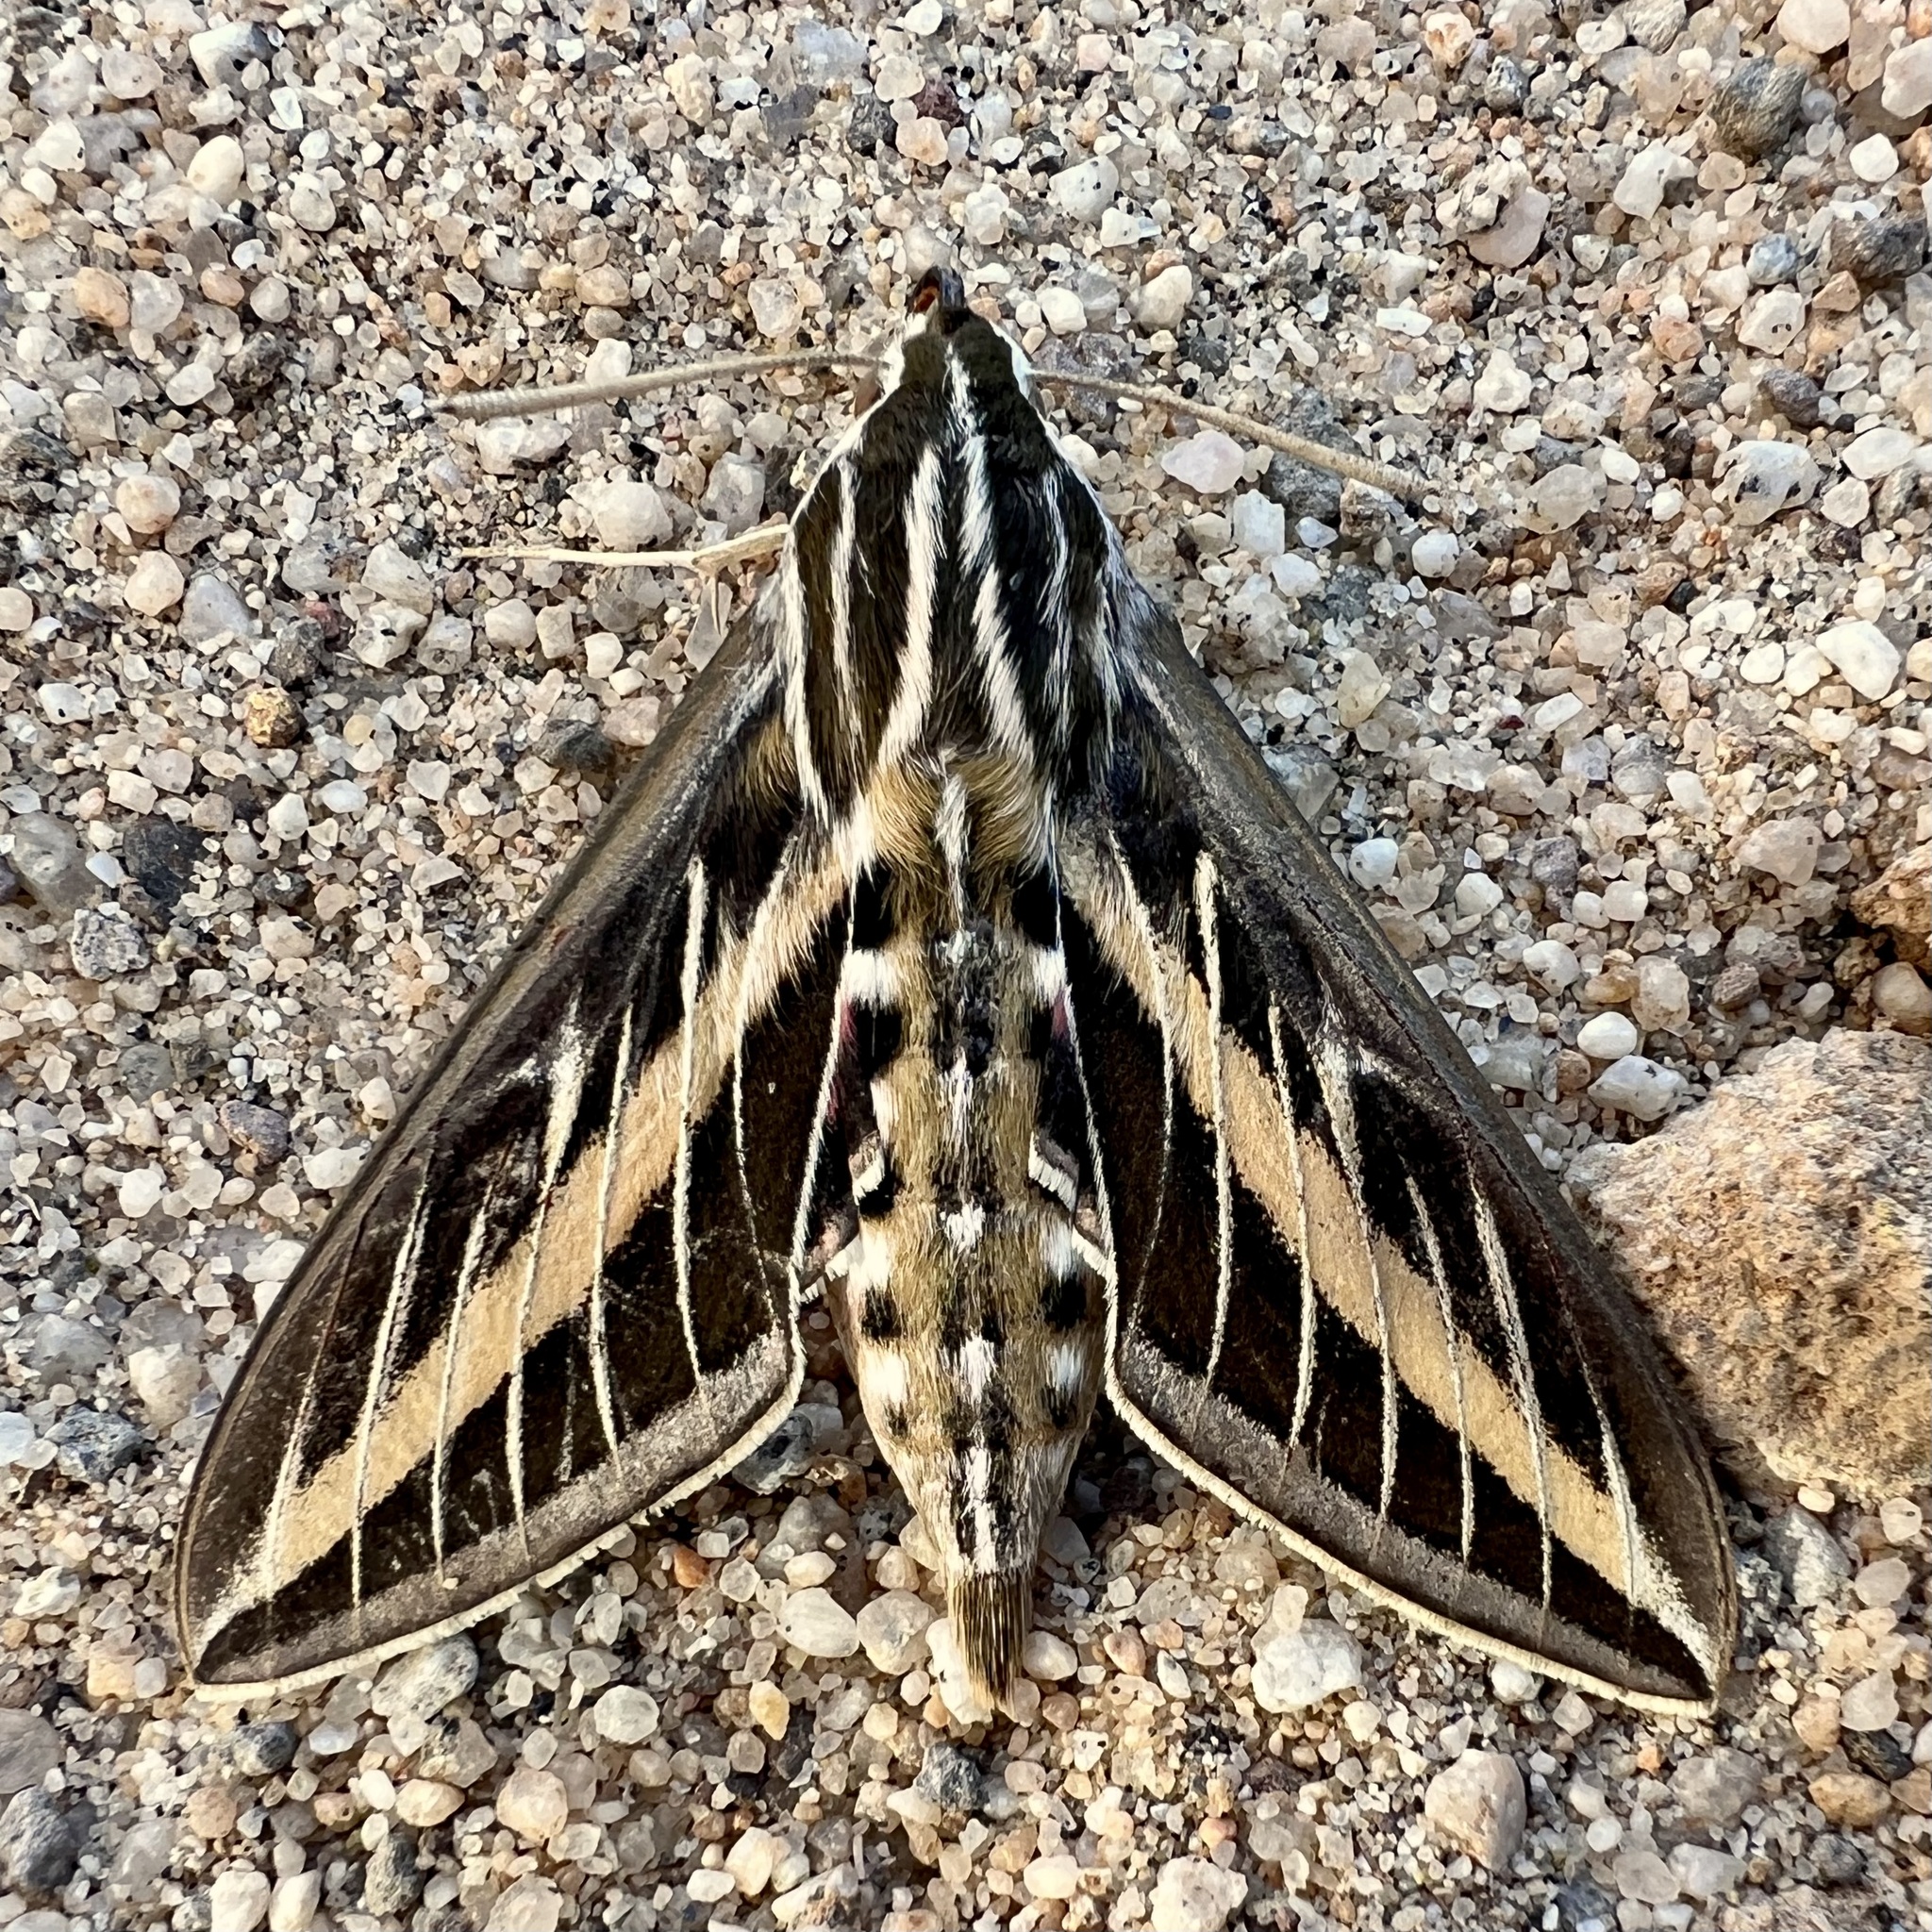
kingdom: Animalia
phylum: Arthropoda
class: Insecta
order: Lepidoptera
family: Sphingidae
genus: Hyles
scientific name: Hyles lineata
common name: White-lined sphinx
